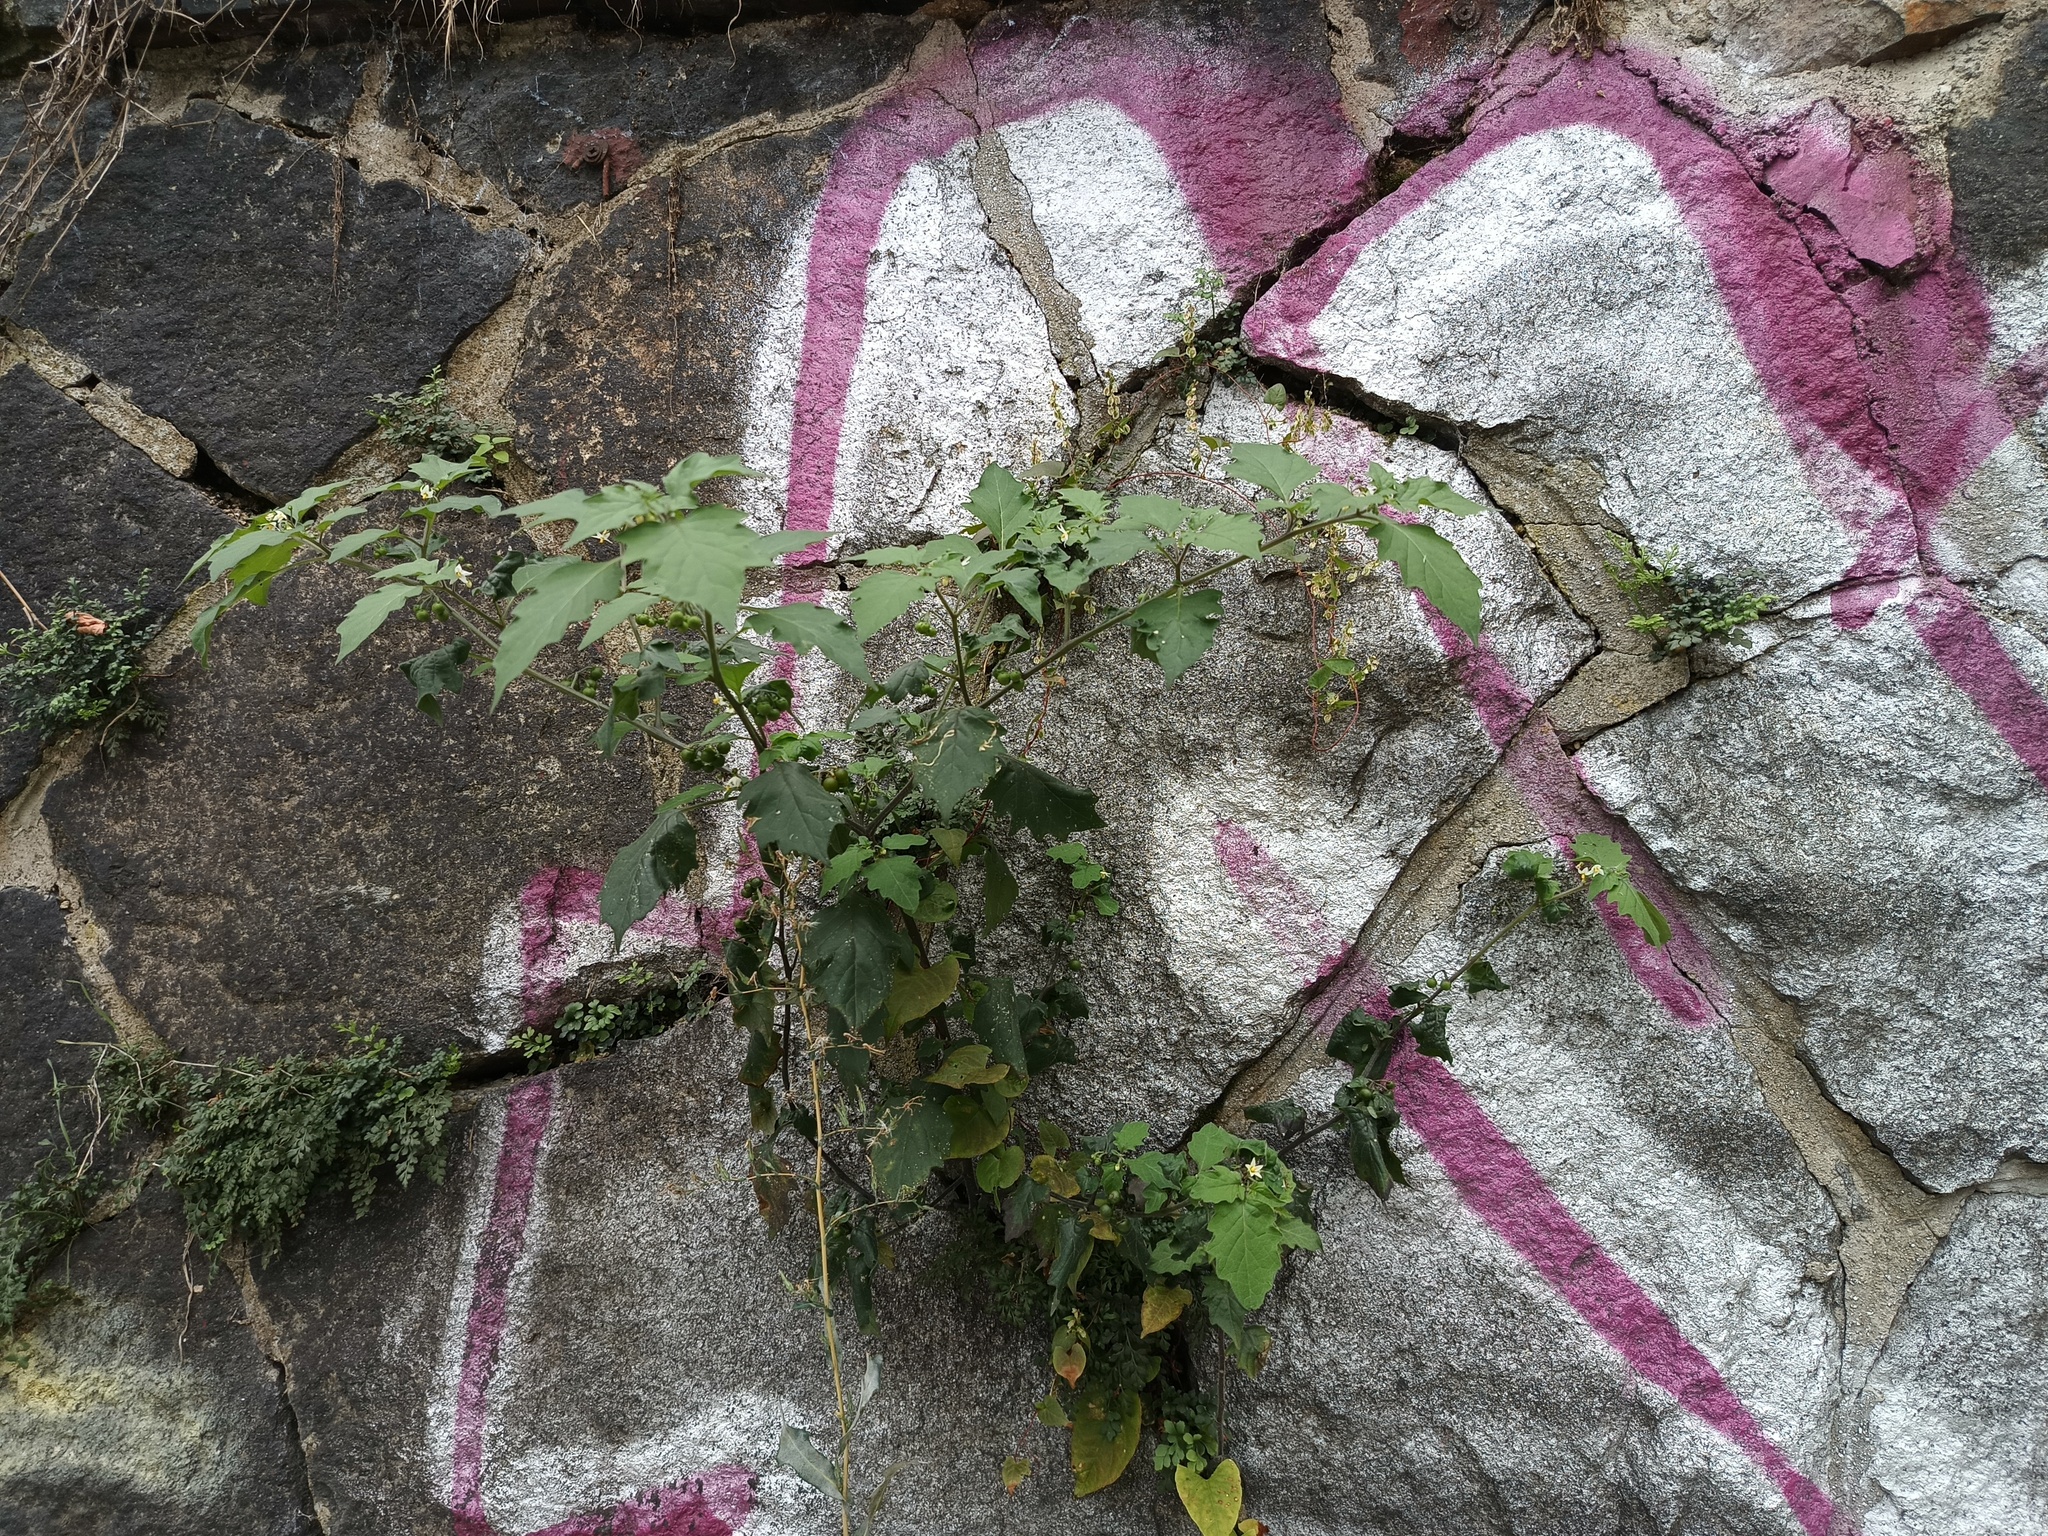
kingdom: Plantae
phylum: Tracheophyta
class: Magnoliopsida
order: Solanales
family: Solanaceae
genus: Solanum
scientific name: Solanum nigrum
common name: Black nightshade
